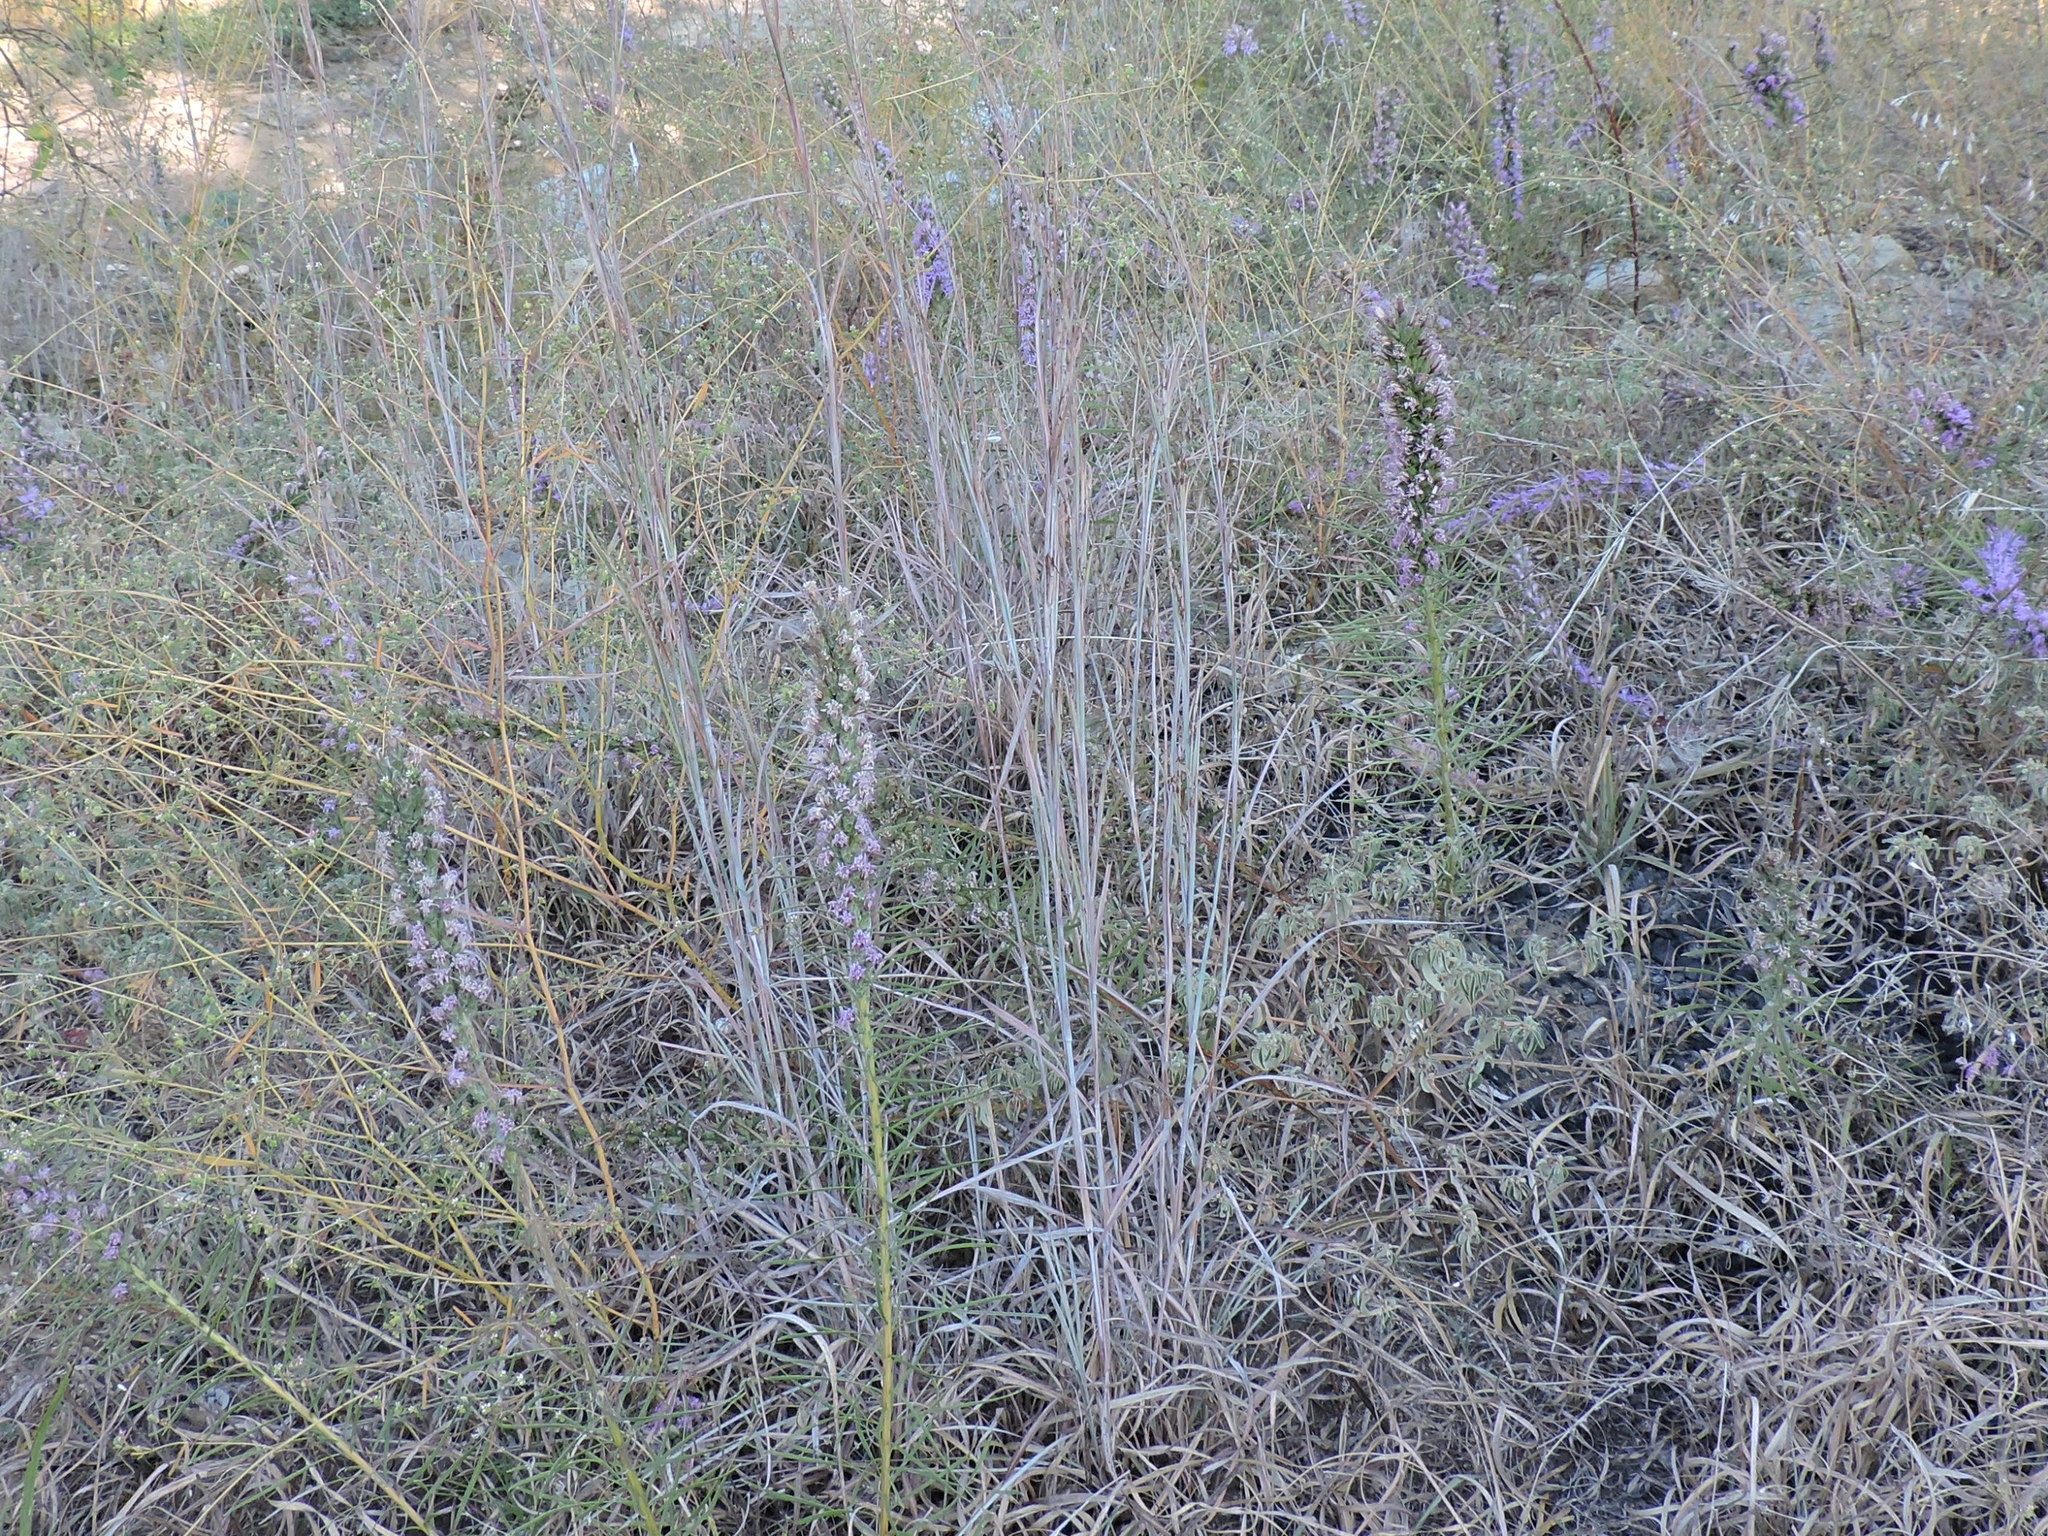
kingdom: Plantae
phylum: Tracheophyta
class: Liliopsida
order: Poales
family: Poaceae
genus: Schizachyrium
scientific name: Schizachyrium scoparium
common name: Little bluestem
